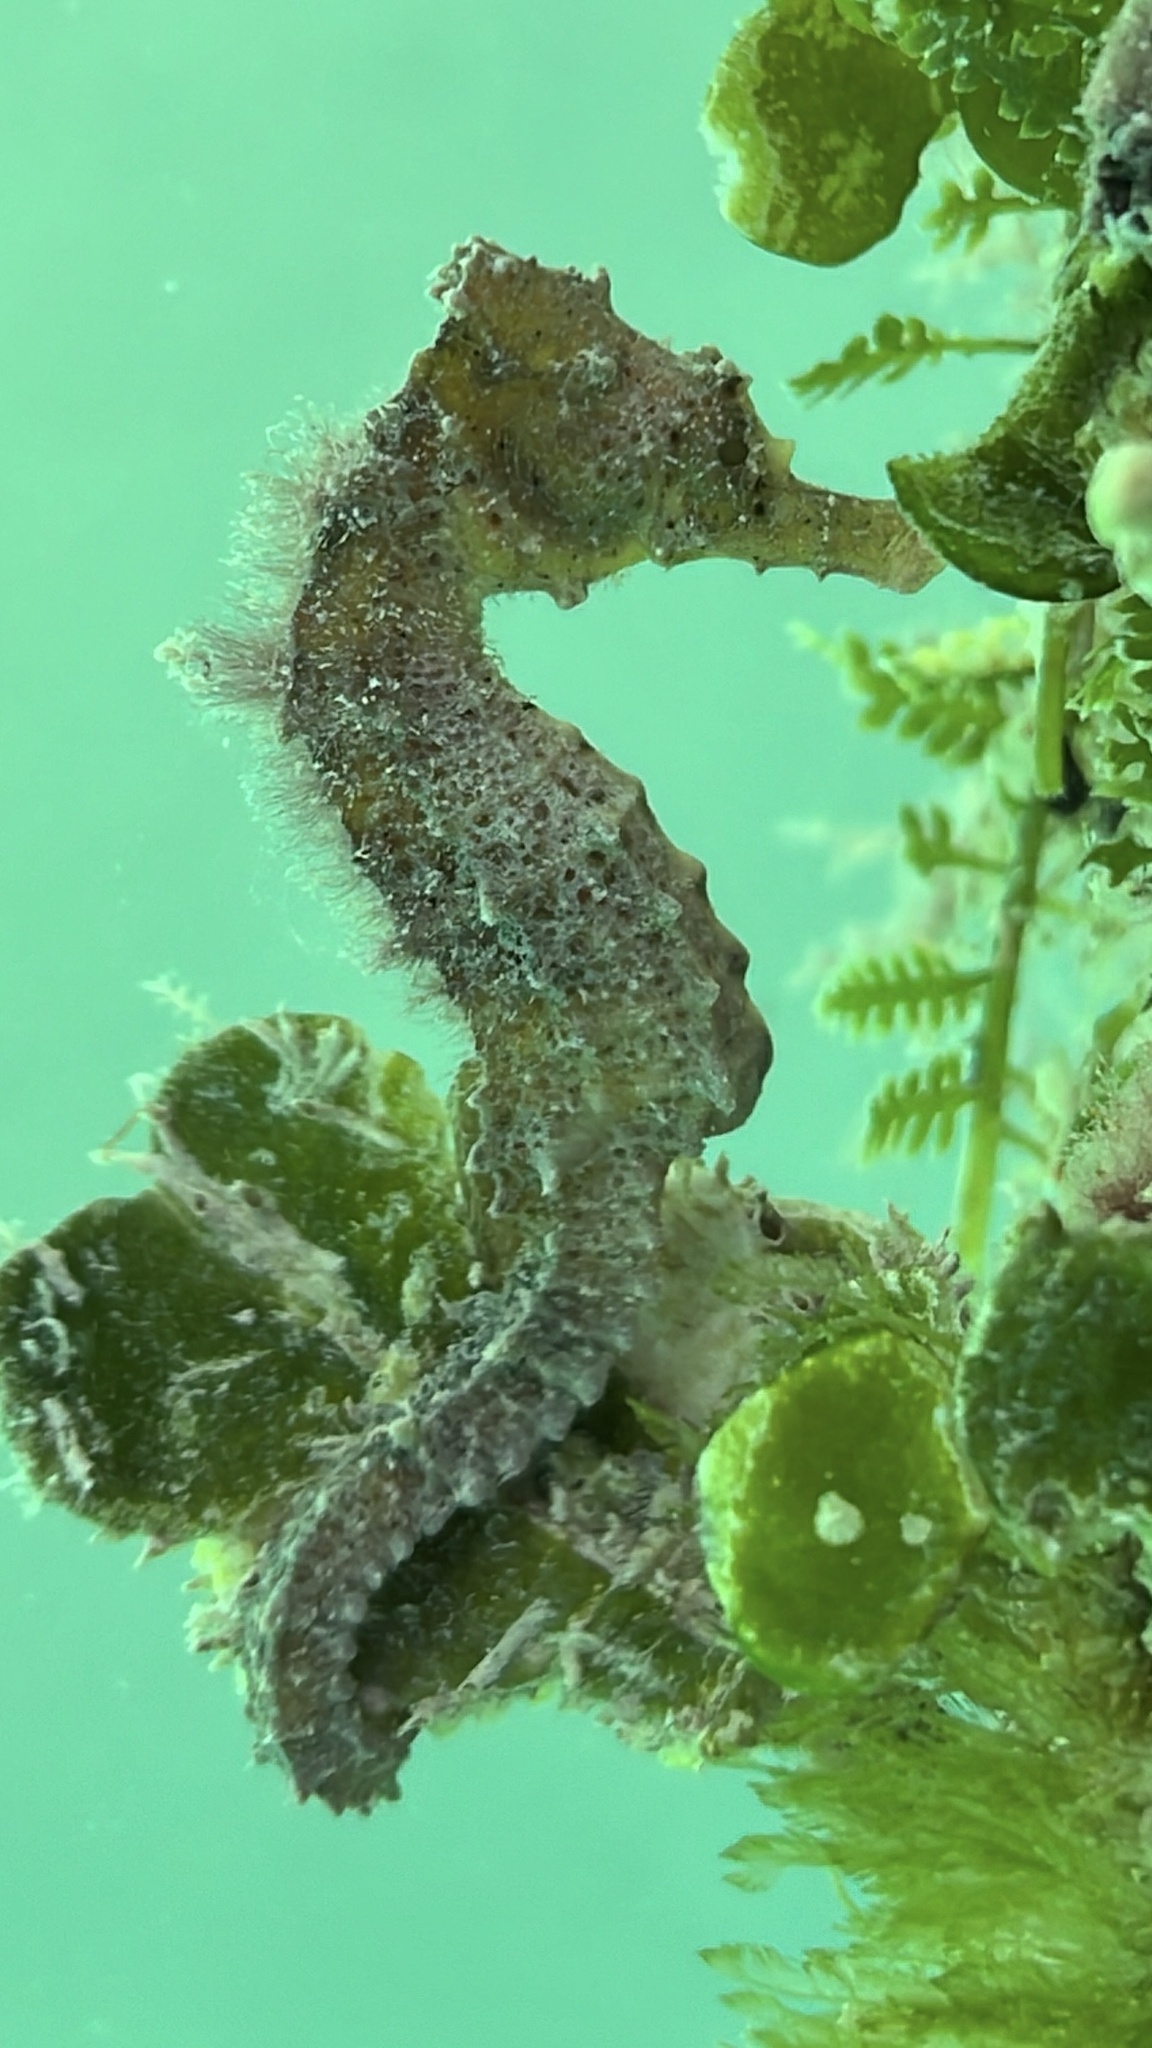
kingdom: Animalia
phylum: Chordata
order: Syngnathiformes
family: Syngnathidae
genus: Hippocampus
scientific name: Hippocampus reidi
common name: Slender seahorse
